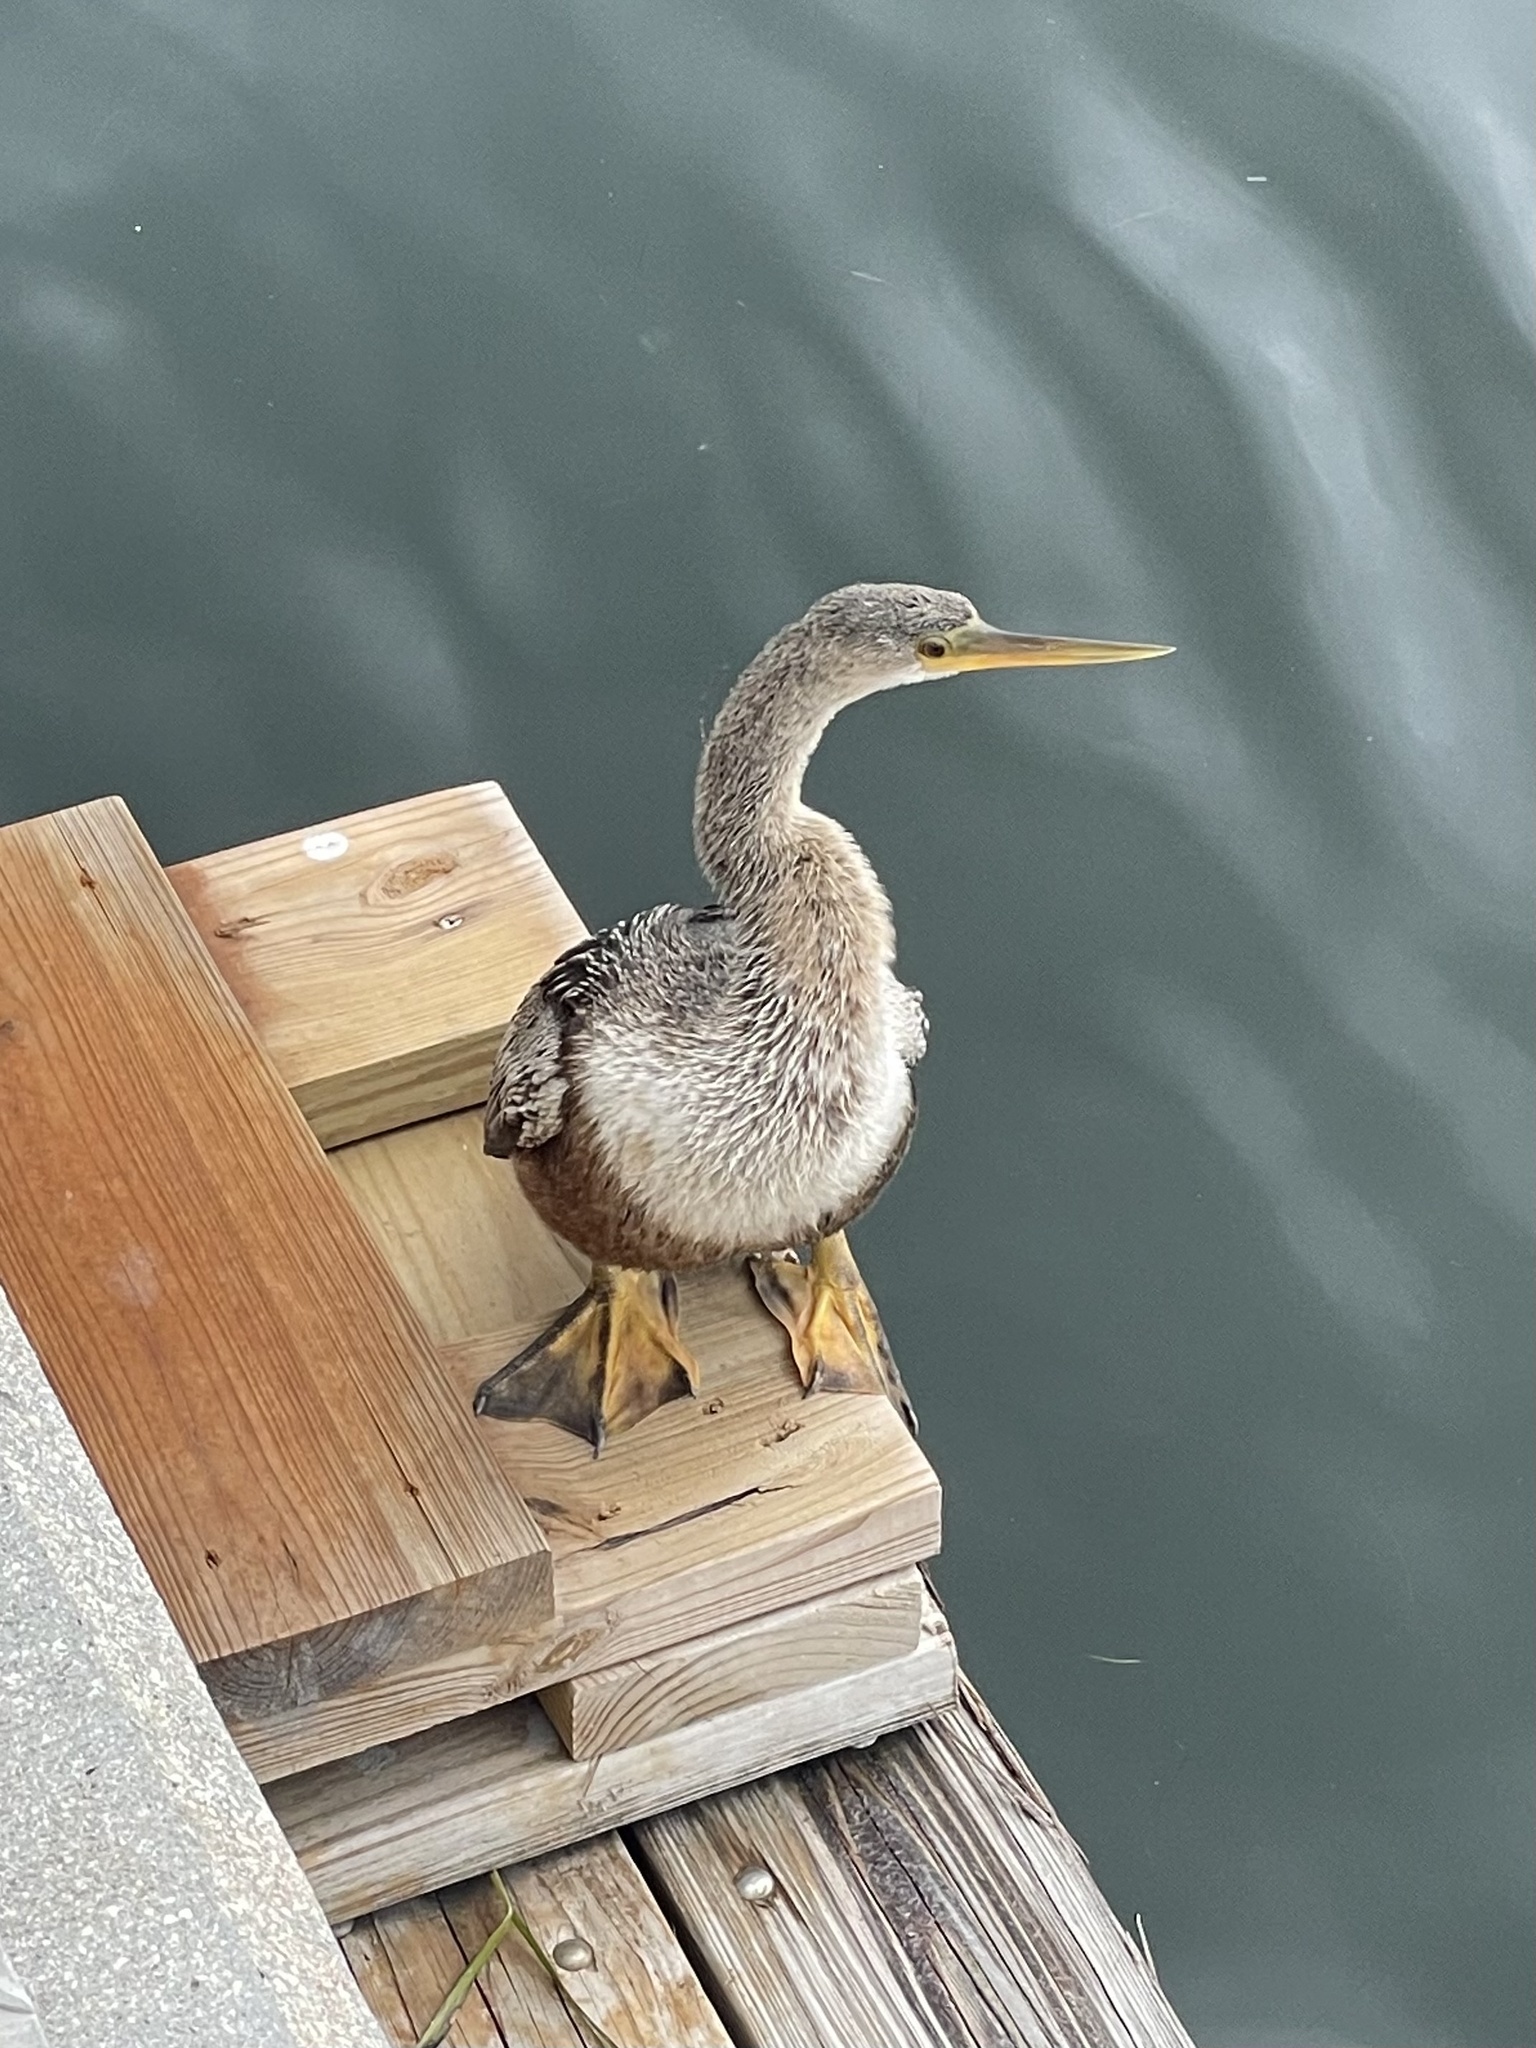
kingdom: Animalia
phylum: Chordata
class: Aves
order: Suliformes
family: Anhingidae
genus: Anhinga
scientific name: Anhinga anhinga
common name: Anhinga
